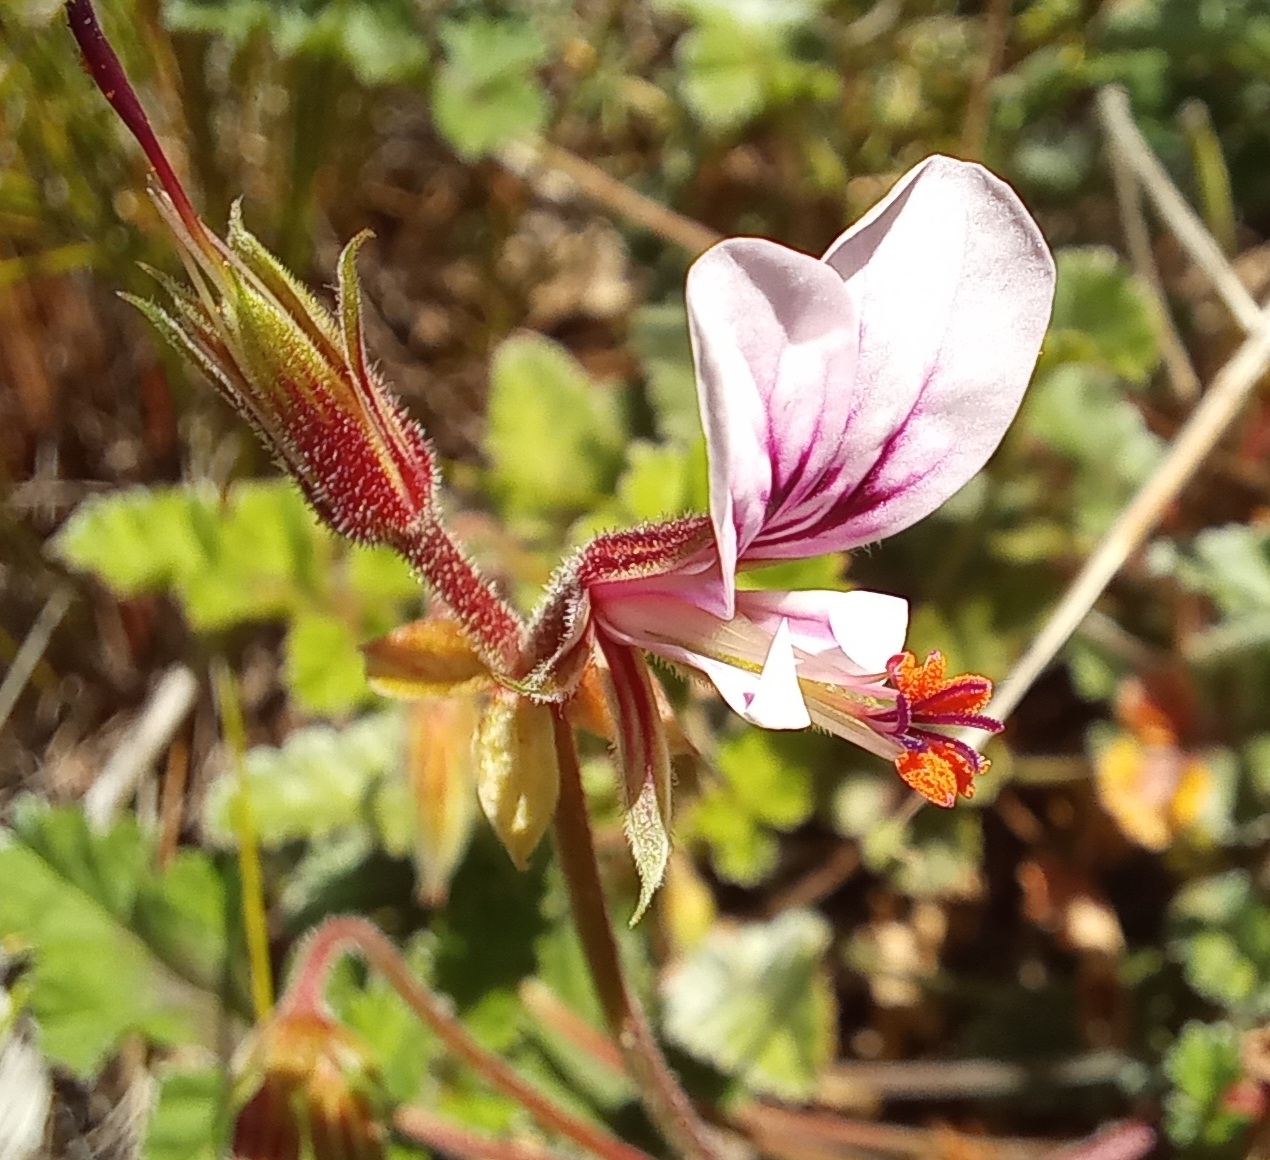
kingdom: Plantae
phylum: Tracheophyta
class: Magnoliopsida
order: Geraniales
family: Geraniaceae
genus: Pelargonium
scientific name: Pelargonium candicans
